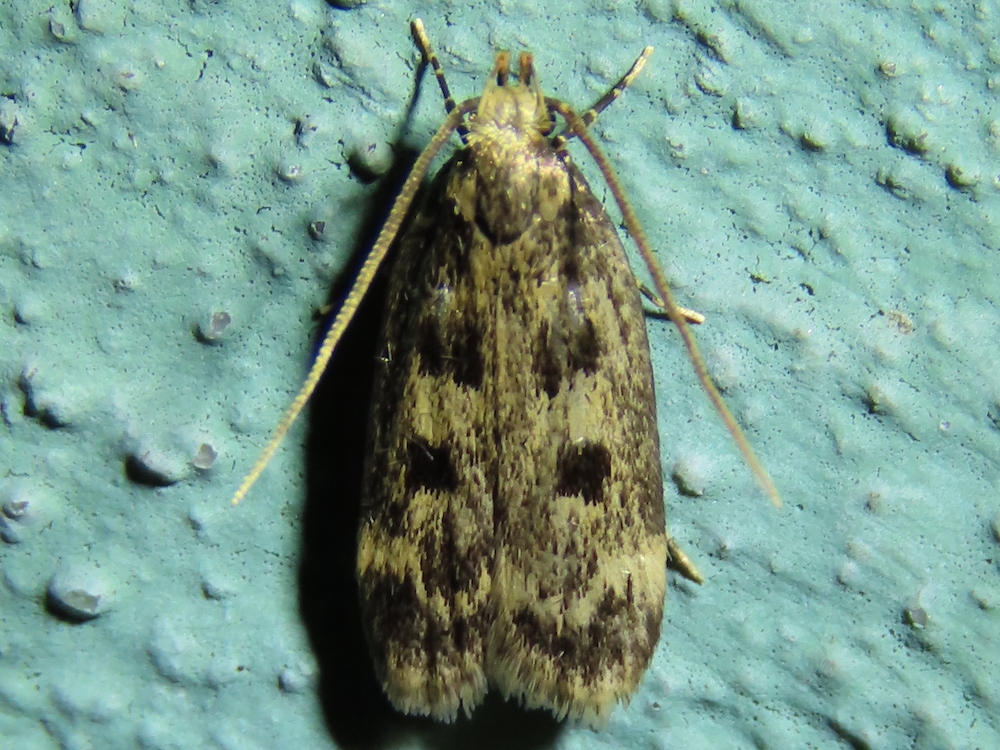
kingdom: Animalia
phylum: Arthropoda
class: Insecta
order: Lepidoptera
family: Lecithoceridae
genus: Martyringa
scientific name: Martyringa latipennis
